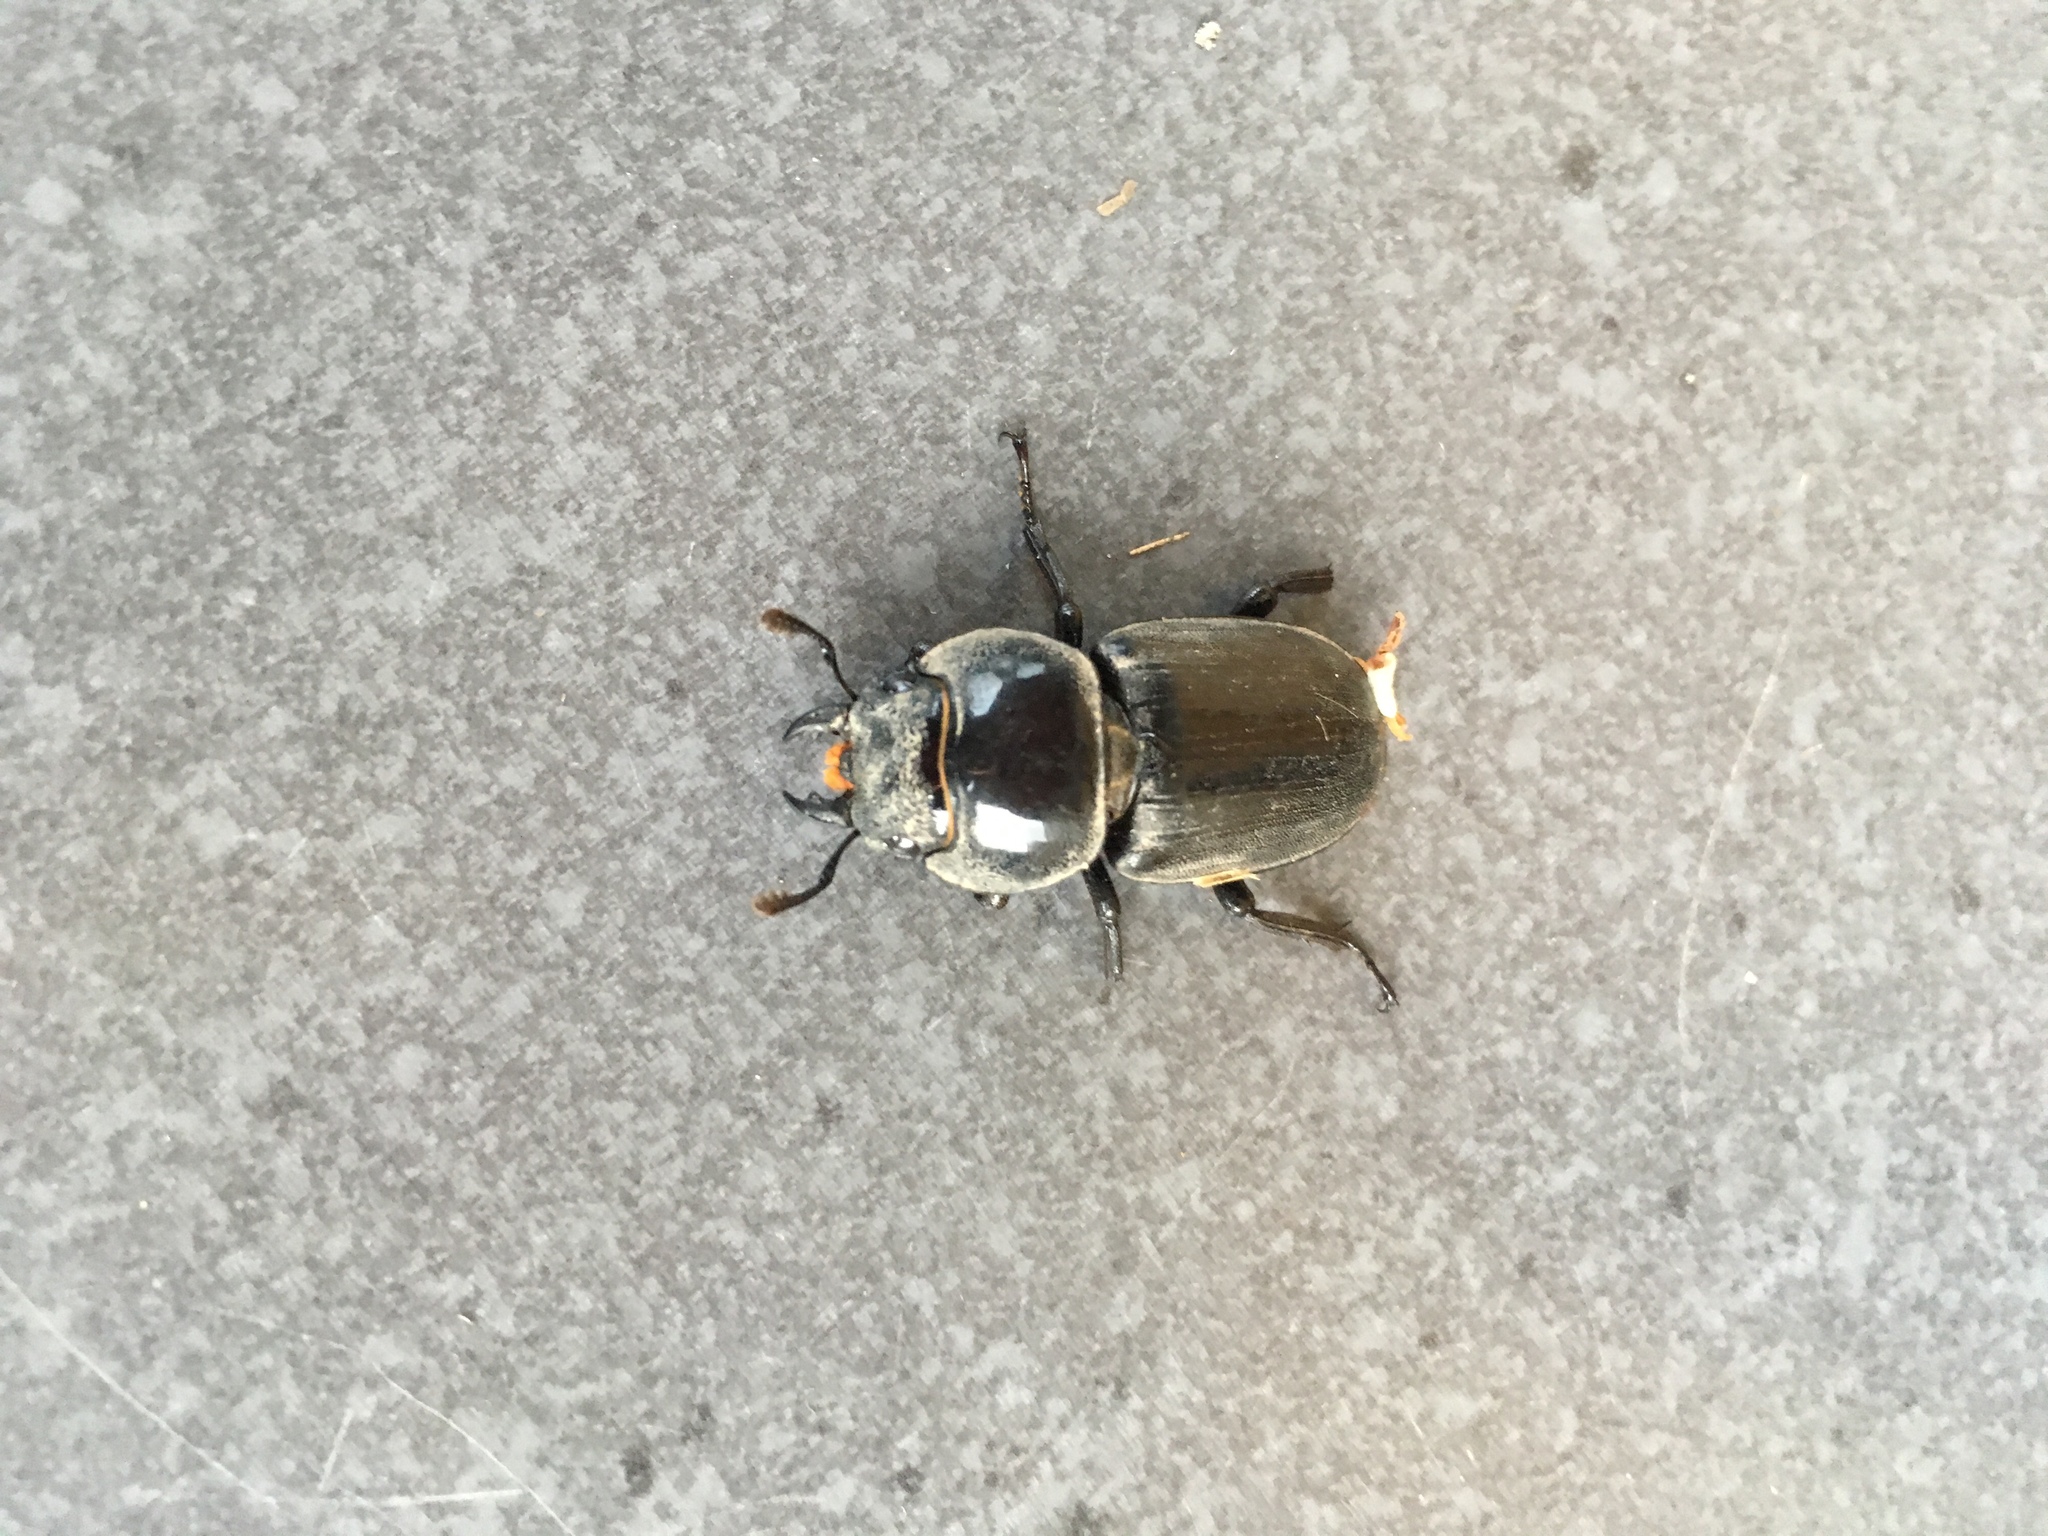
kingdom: Animalia
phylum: Arthropoda
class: Insecta
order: Coleoptera
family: Lucanidae
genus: Serrognathus
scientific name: Serrognathus titanus
